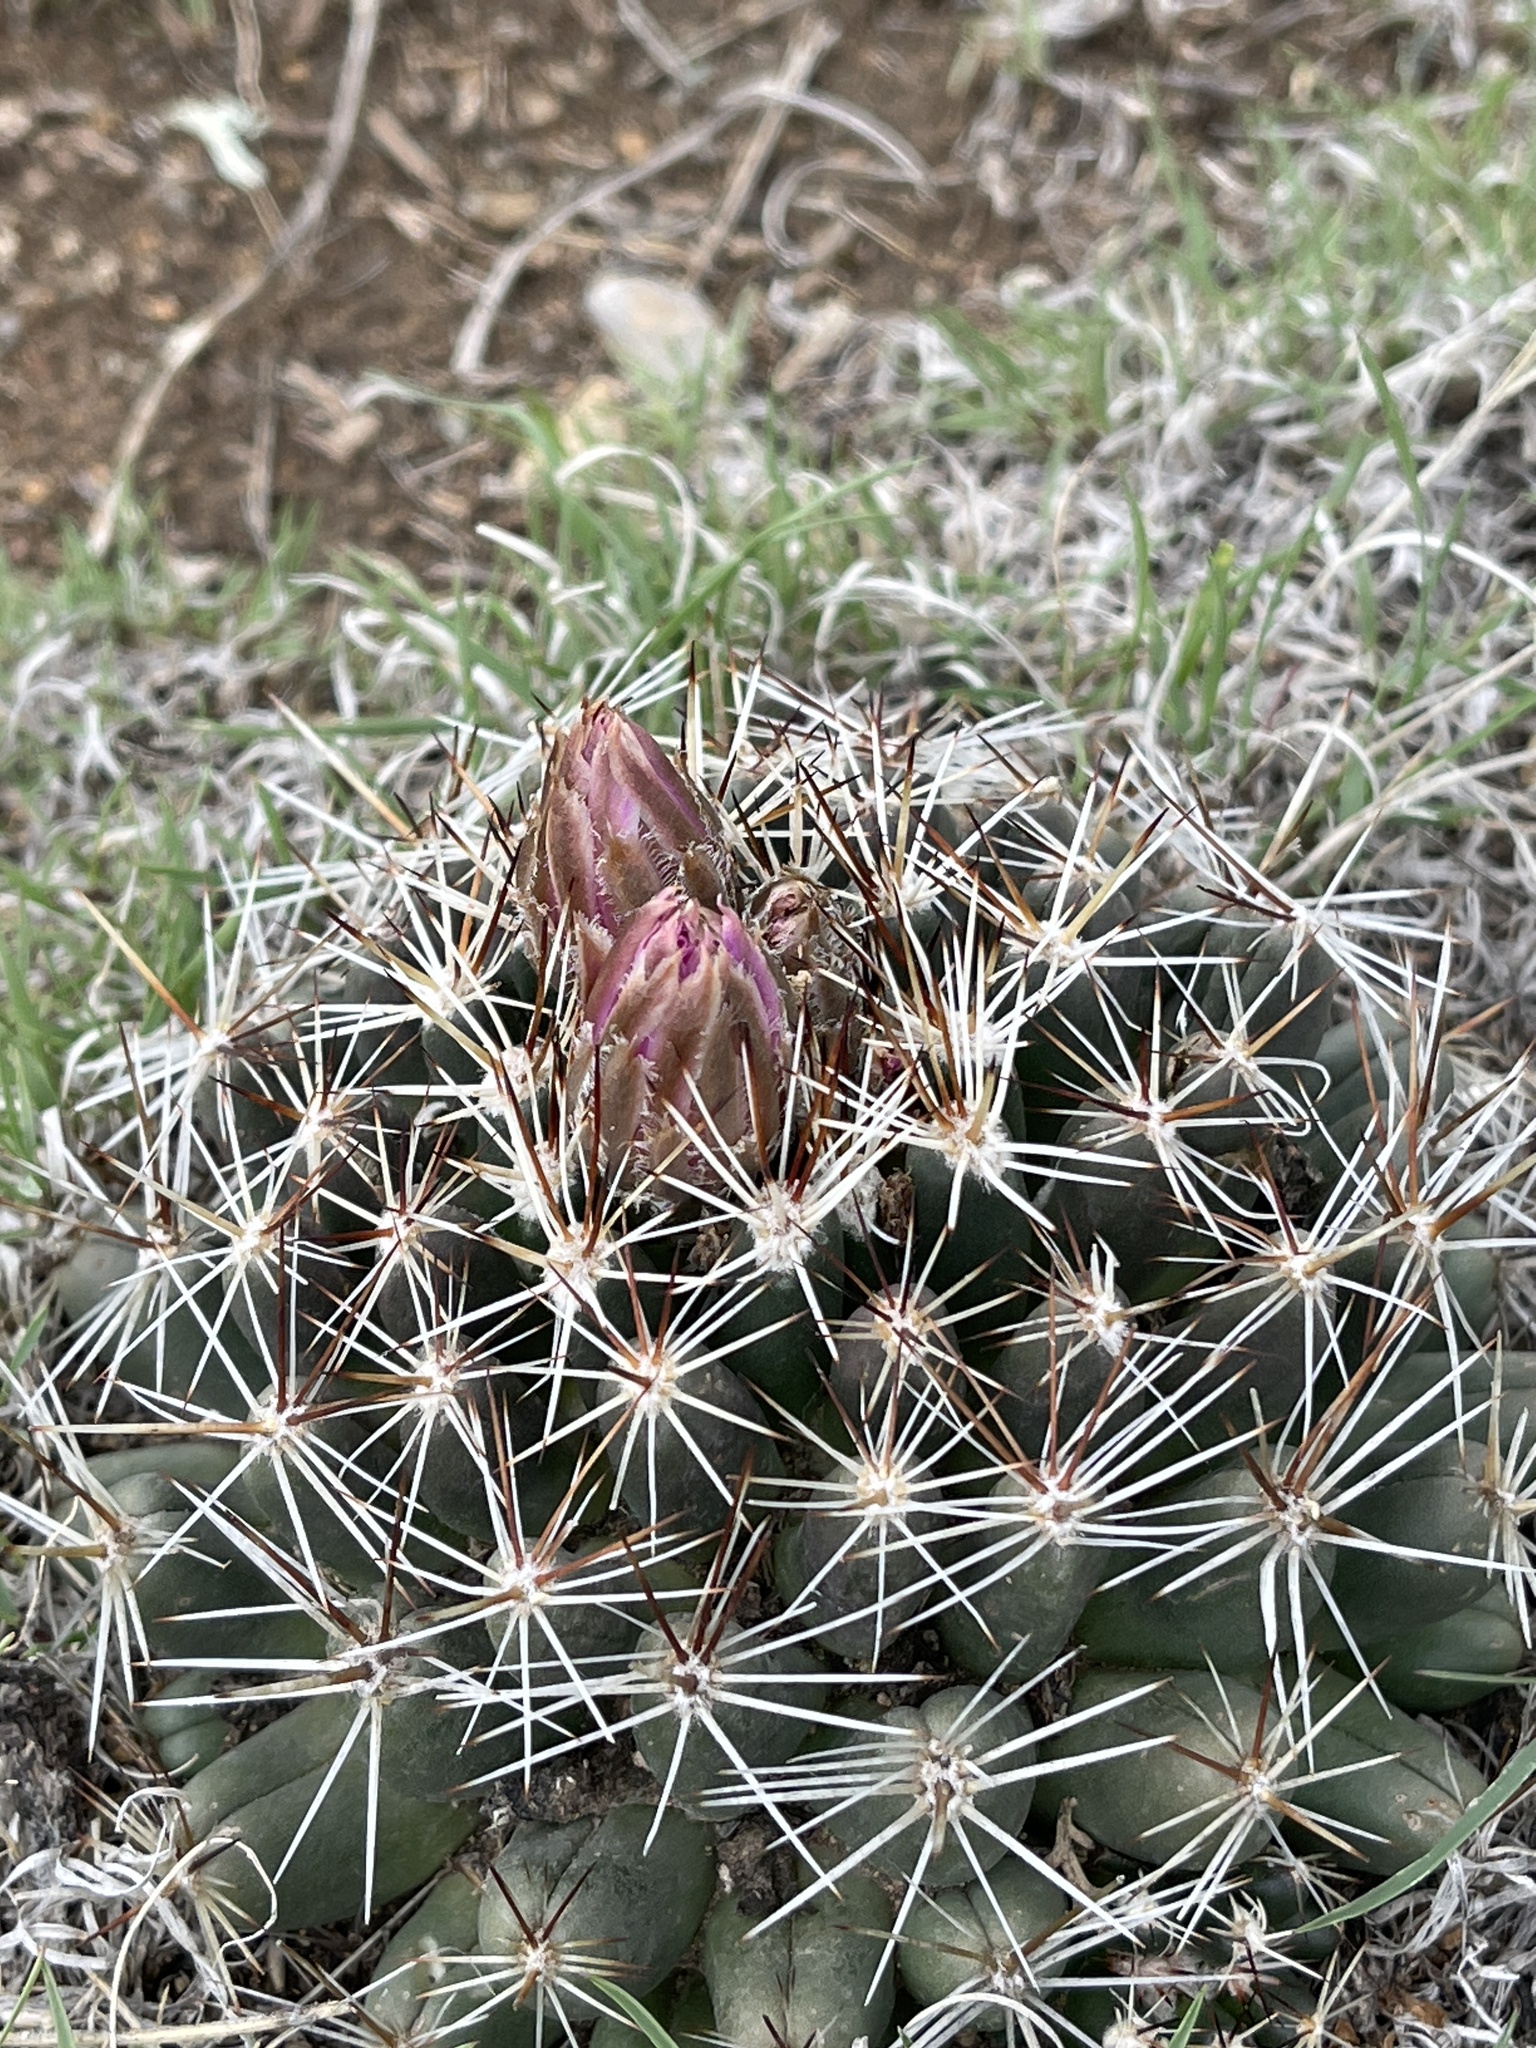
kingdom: Plantae
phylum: Tracheophyta
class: Magnoliopsida
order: Caryophyllales
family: Cactaceae
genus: Pelecyphora
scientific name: Pelecyphora vivipara
